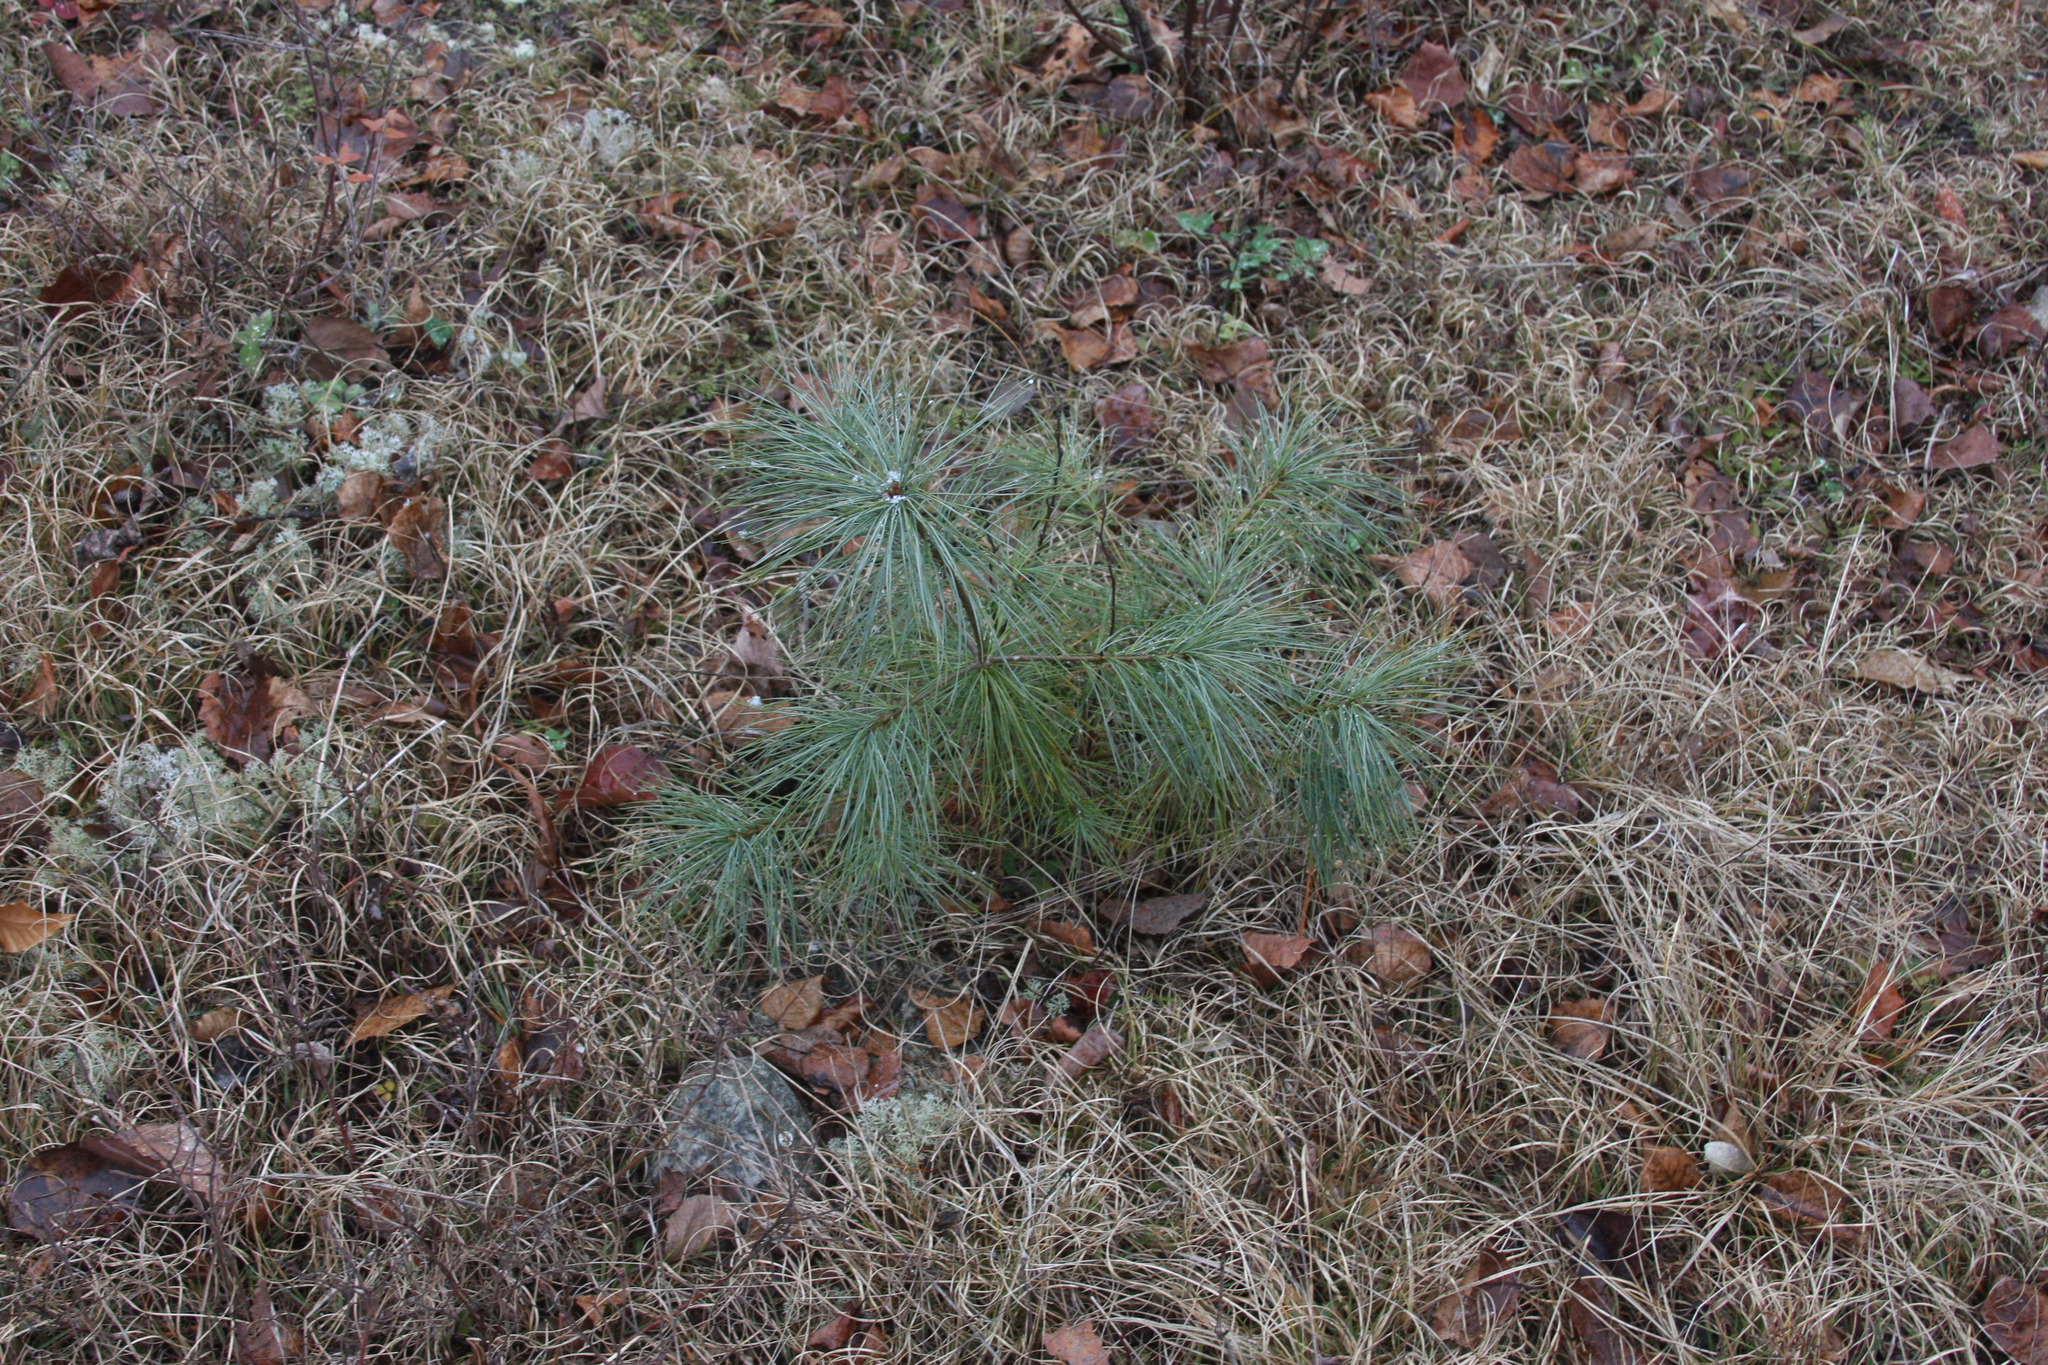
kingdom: Plantae
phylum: Tracheophyta
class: Pinopsida
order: Pinales
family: Pinaceae
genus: Pinus
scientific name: Pinus strobus
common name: Weymouth pine
